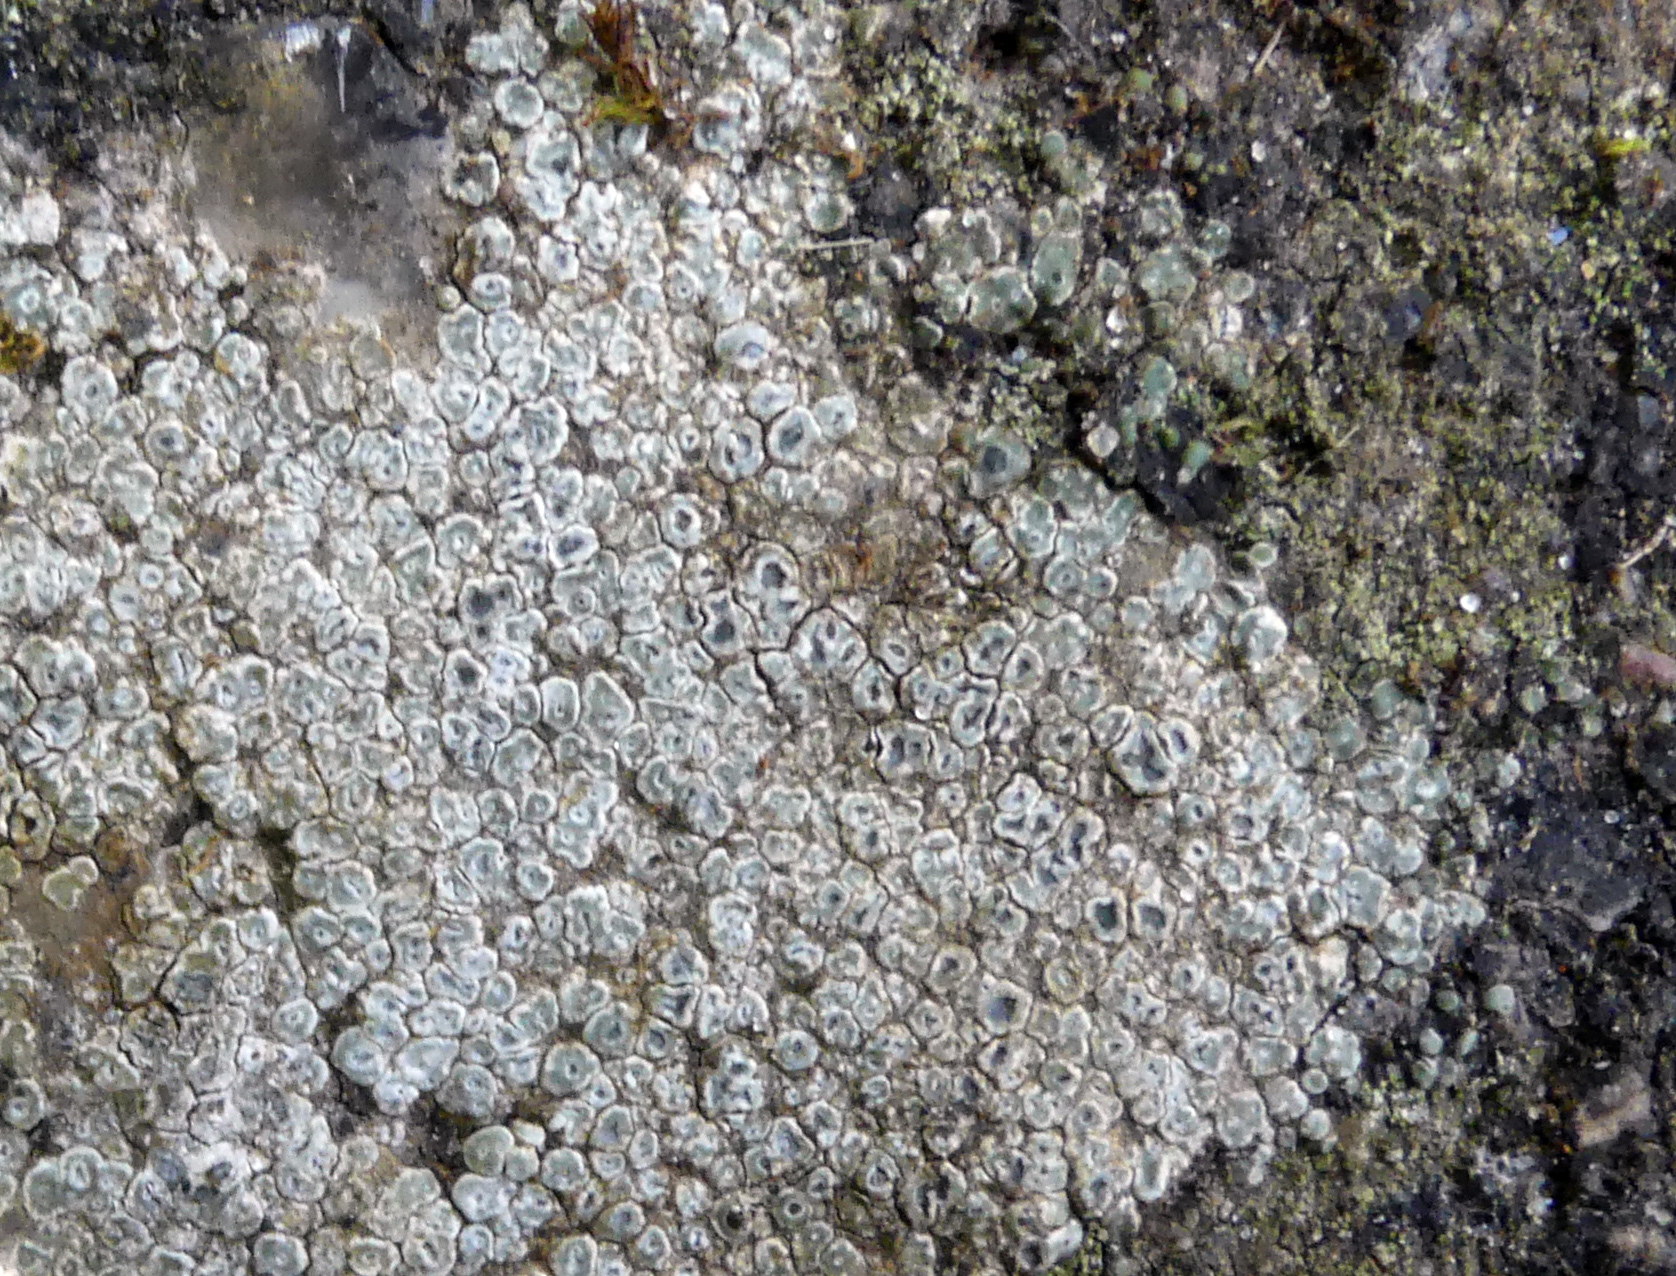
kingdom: Fungi
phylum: Ascomycota
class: Lecanoromycetes
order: Pertusariales
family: Megasporaceae
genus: Circinaria
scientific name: Circinaria contorta
